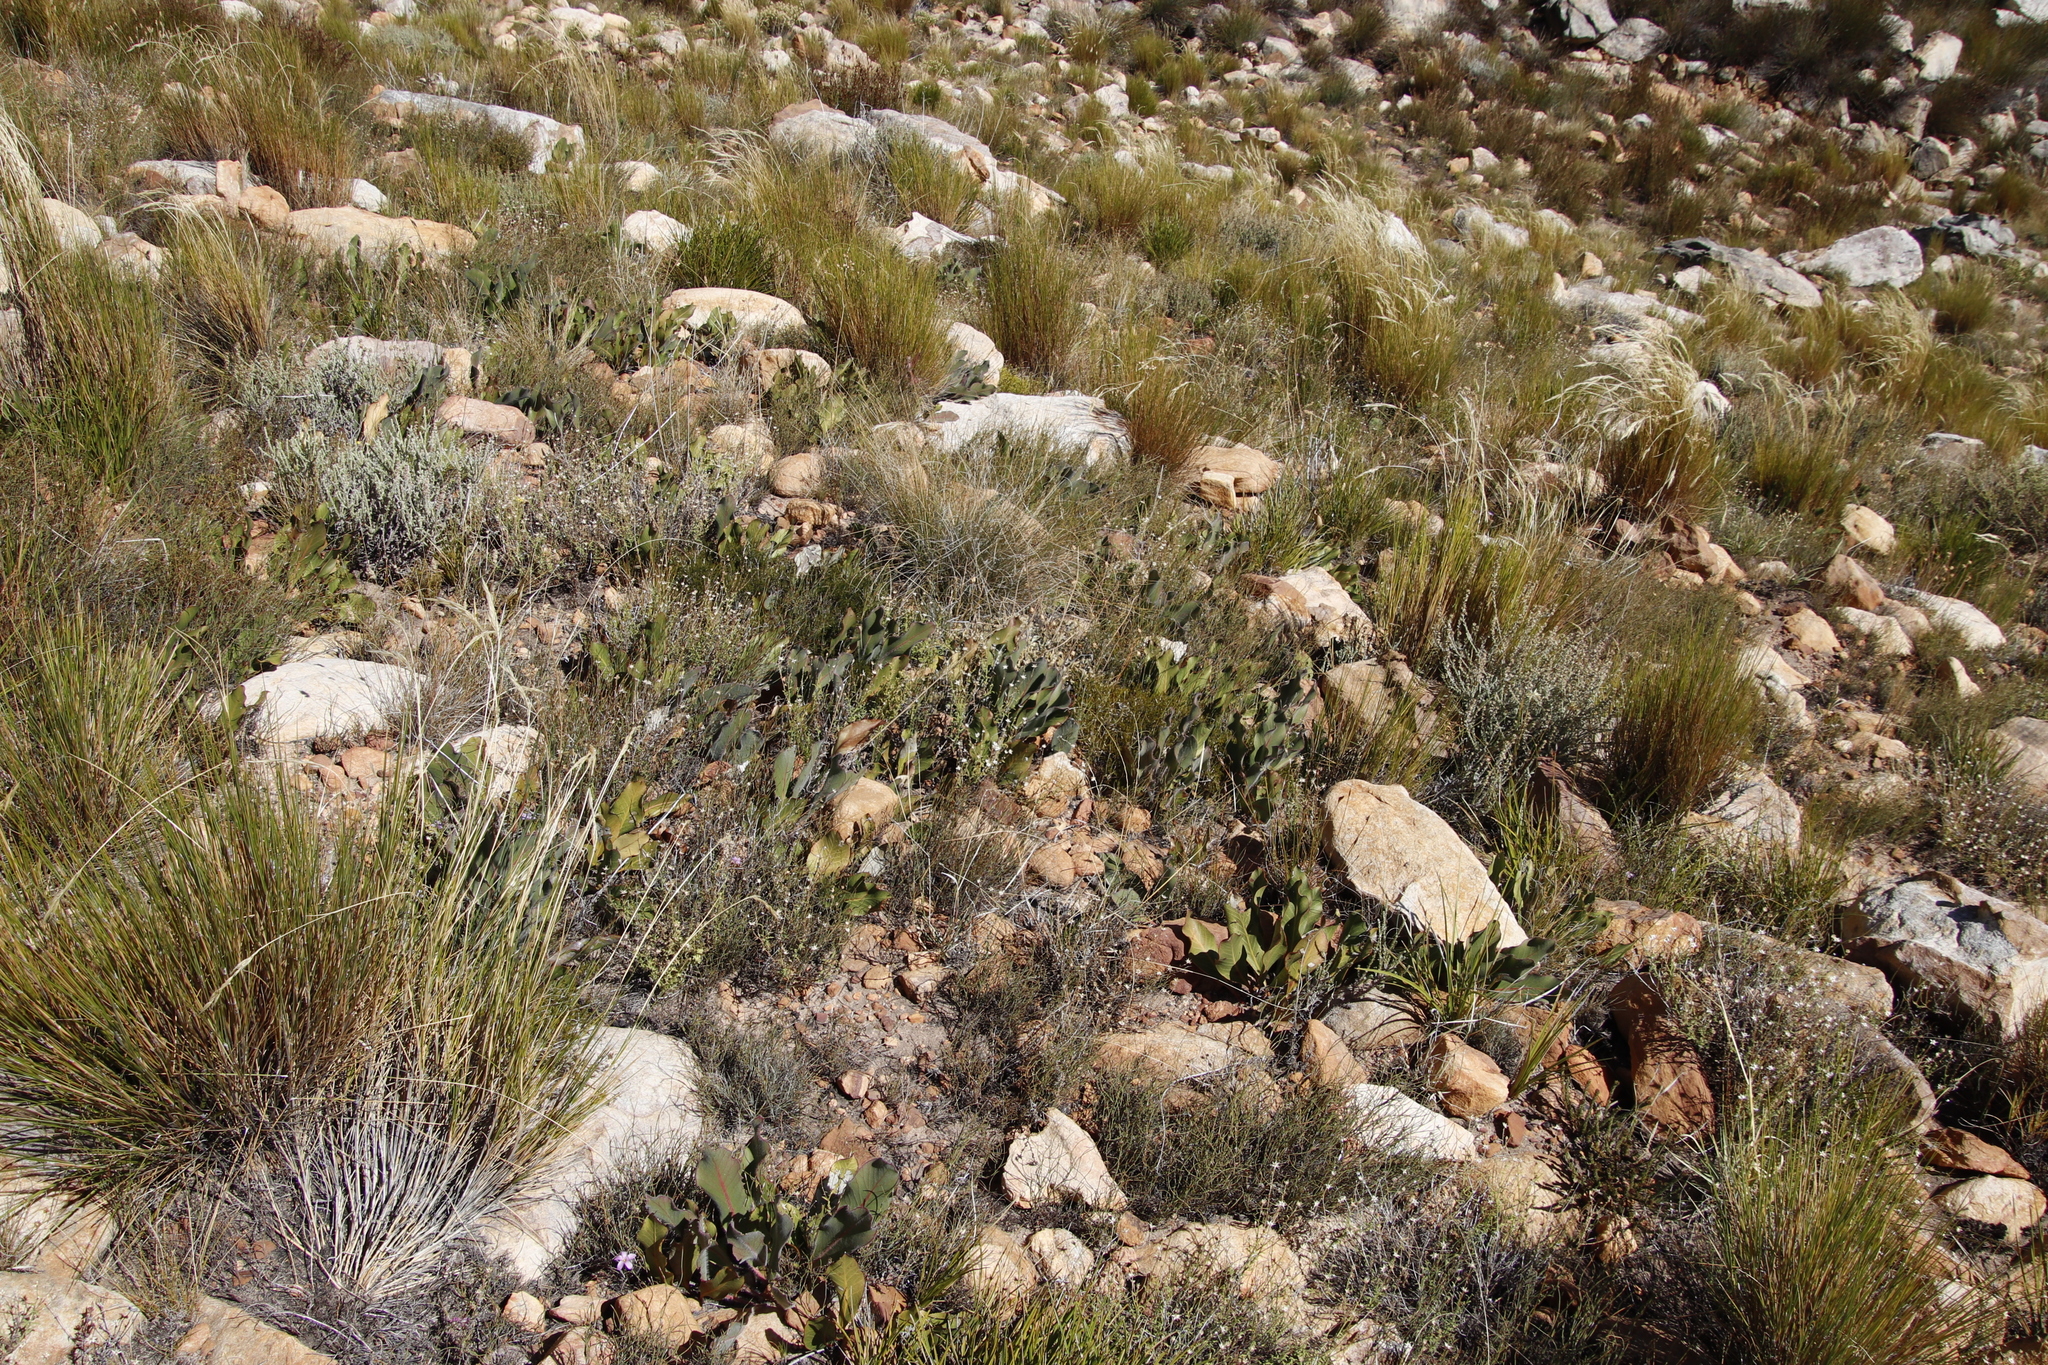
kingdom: Plantae
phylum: Tracheophyta
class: Magnoliopsida
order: Proteales
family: Proteaceae
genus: Protea
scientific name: Protea scolopendriifolia
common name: Harts-tongue-fern sugarbush
